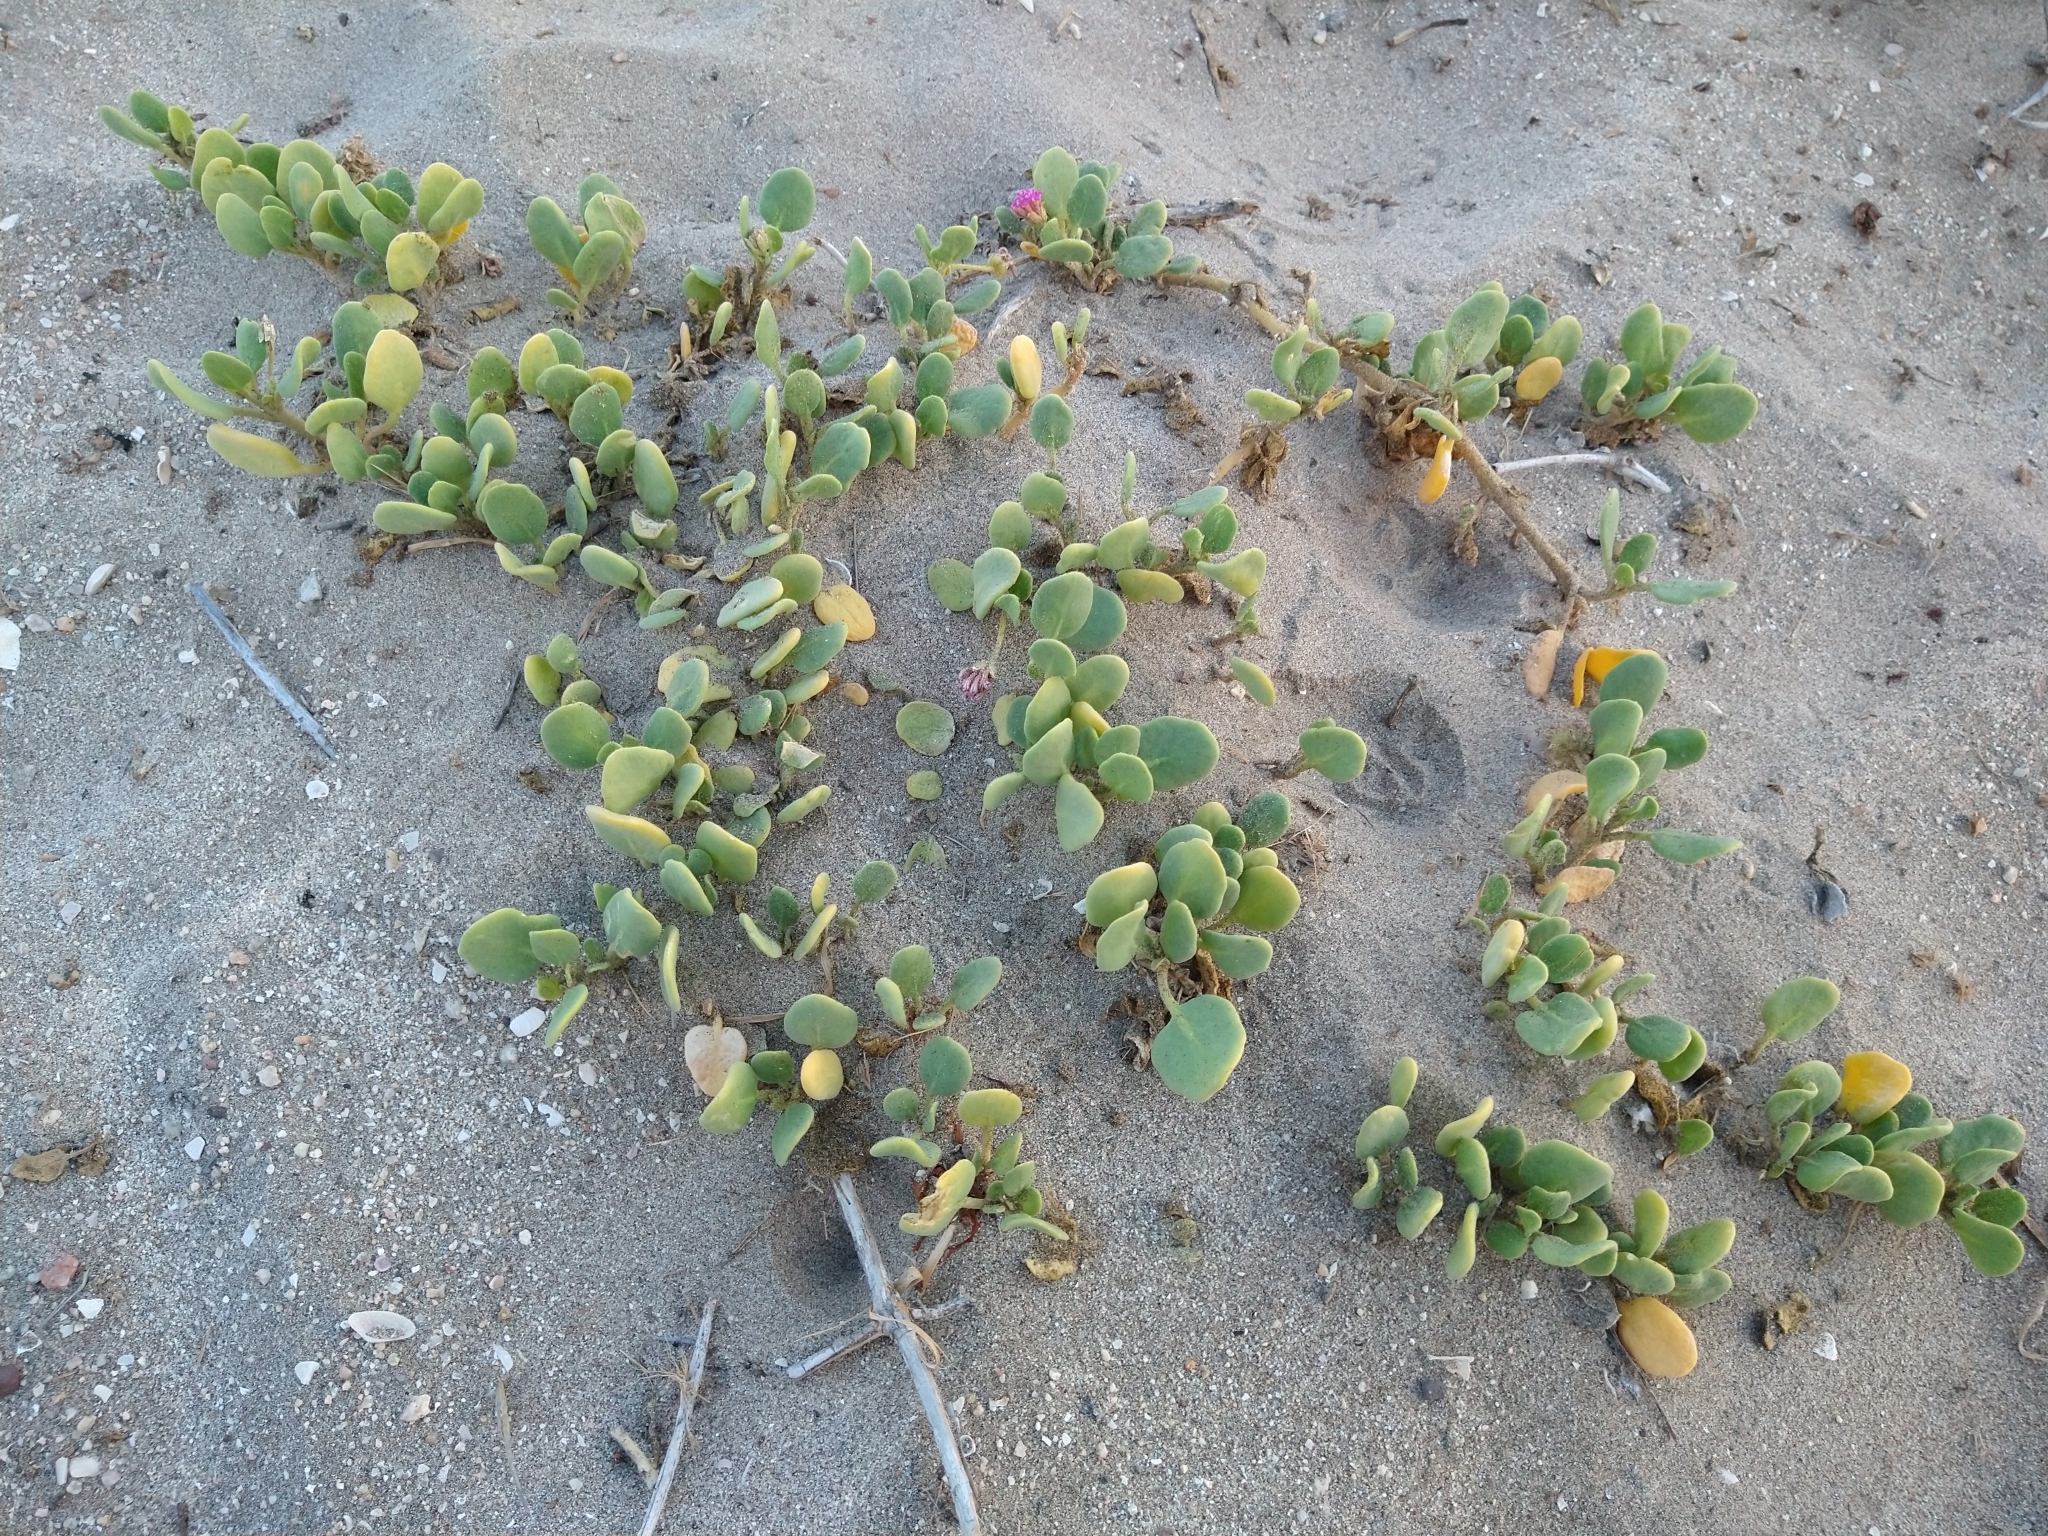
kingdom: Plantae
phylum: Tracheophyta
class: Magnoliopsida
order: Caryophyllales
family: Nyctaginaceae
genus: Abronia
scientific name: Abronia maritima
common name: Red sand-verbena
